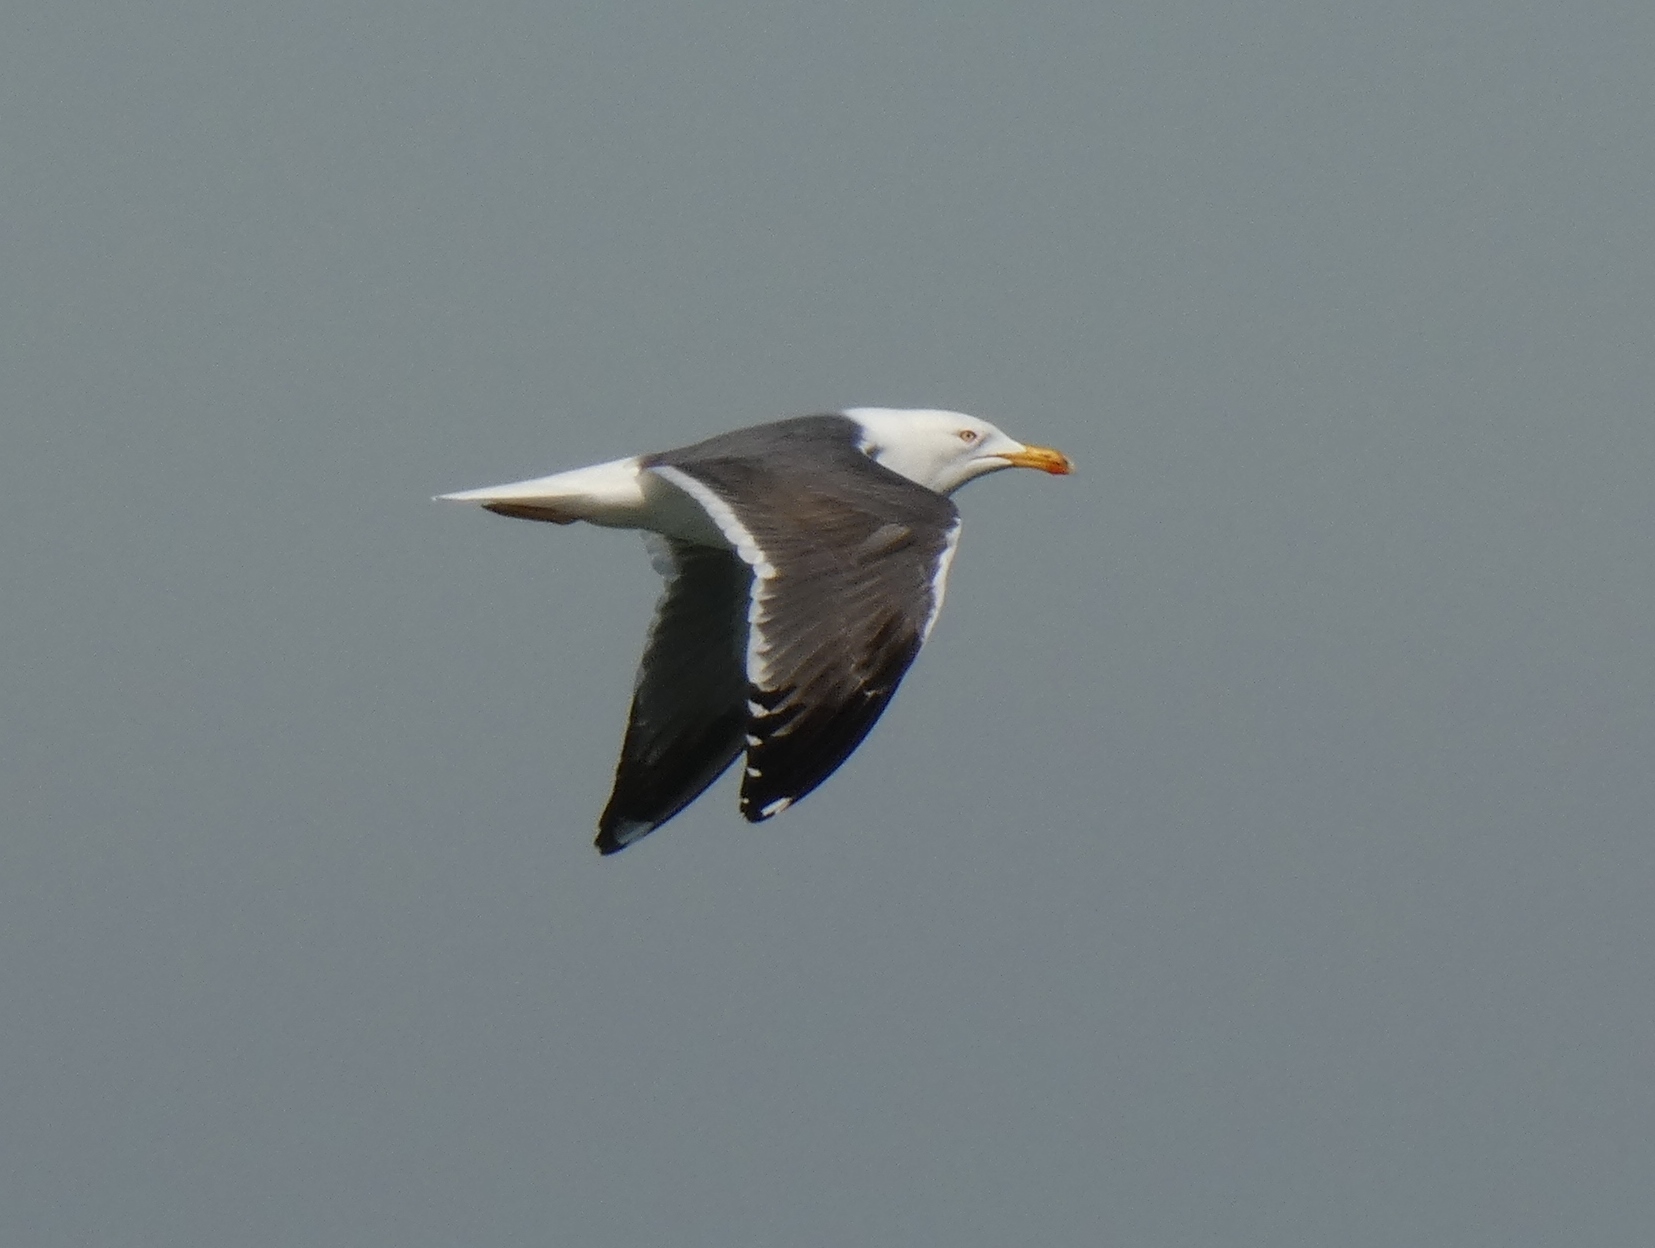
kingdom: Animalia
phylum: Chordata
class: Aves
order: Charadriiformes
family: Laridae
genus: Larus
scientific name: Larus fuscus
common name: Lesser black-backed gull
